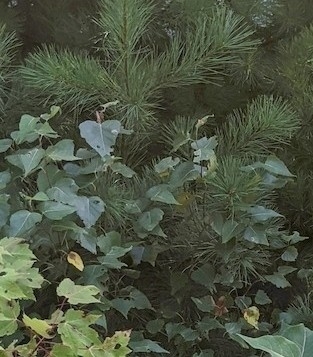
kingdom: Plantae
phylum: Tracheophyta
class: Magnoliopsida
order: Fagales
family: Betulaceae
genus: Betula
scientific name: Betula populifolia
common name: Fire birch
